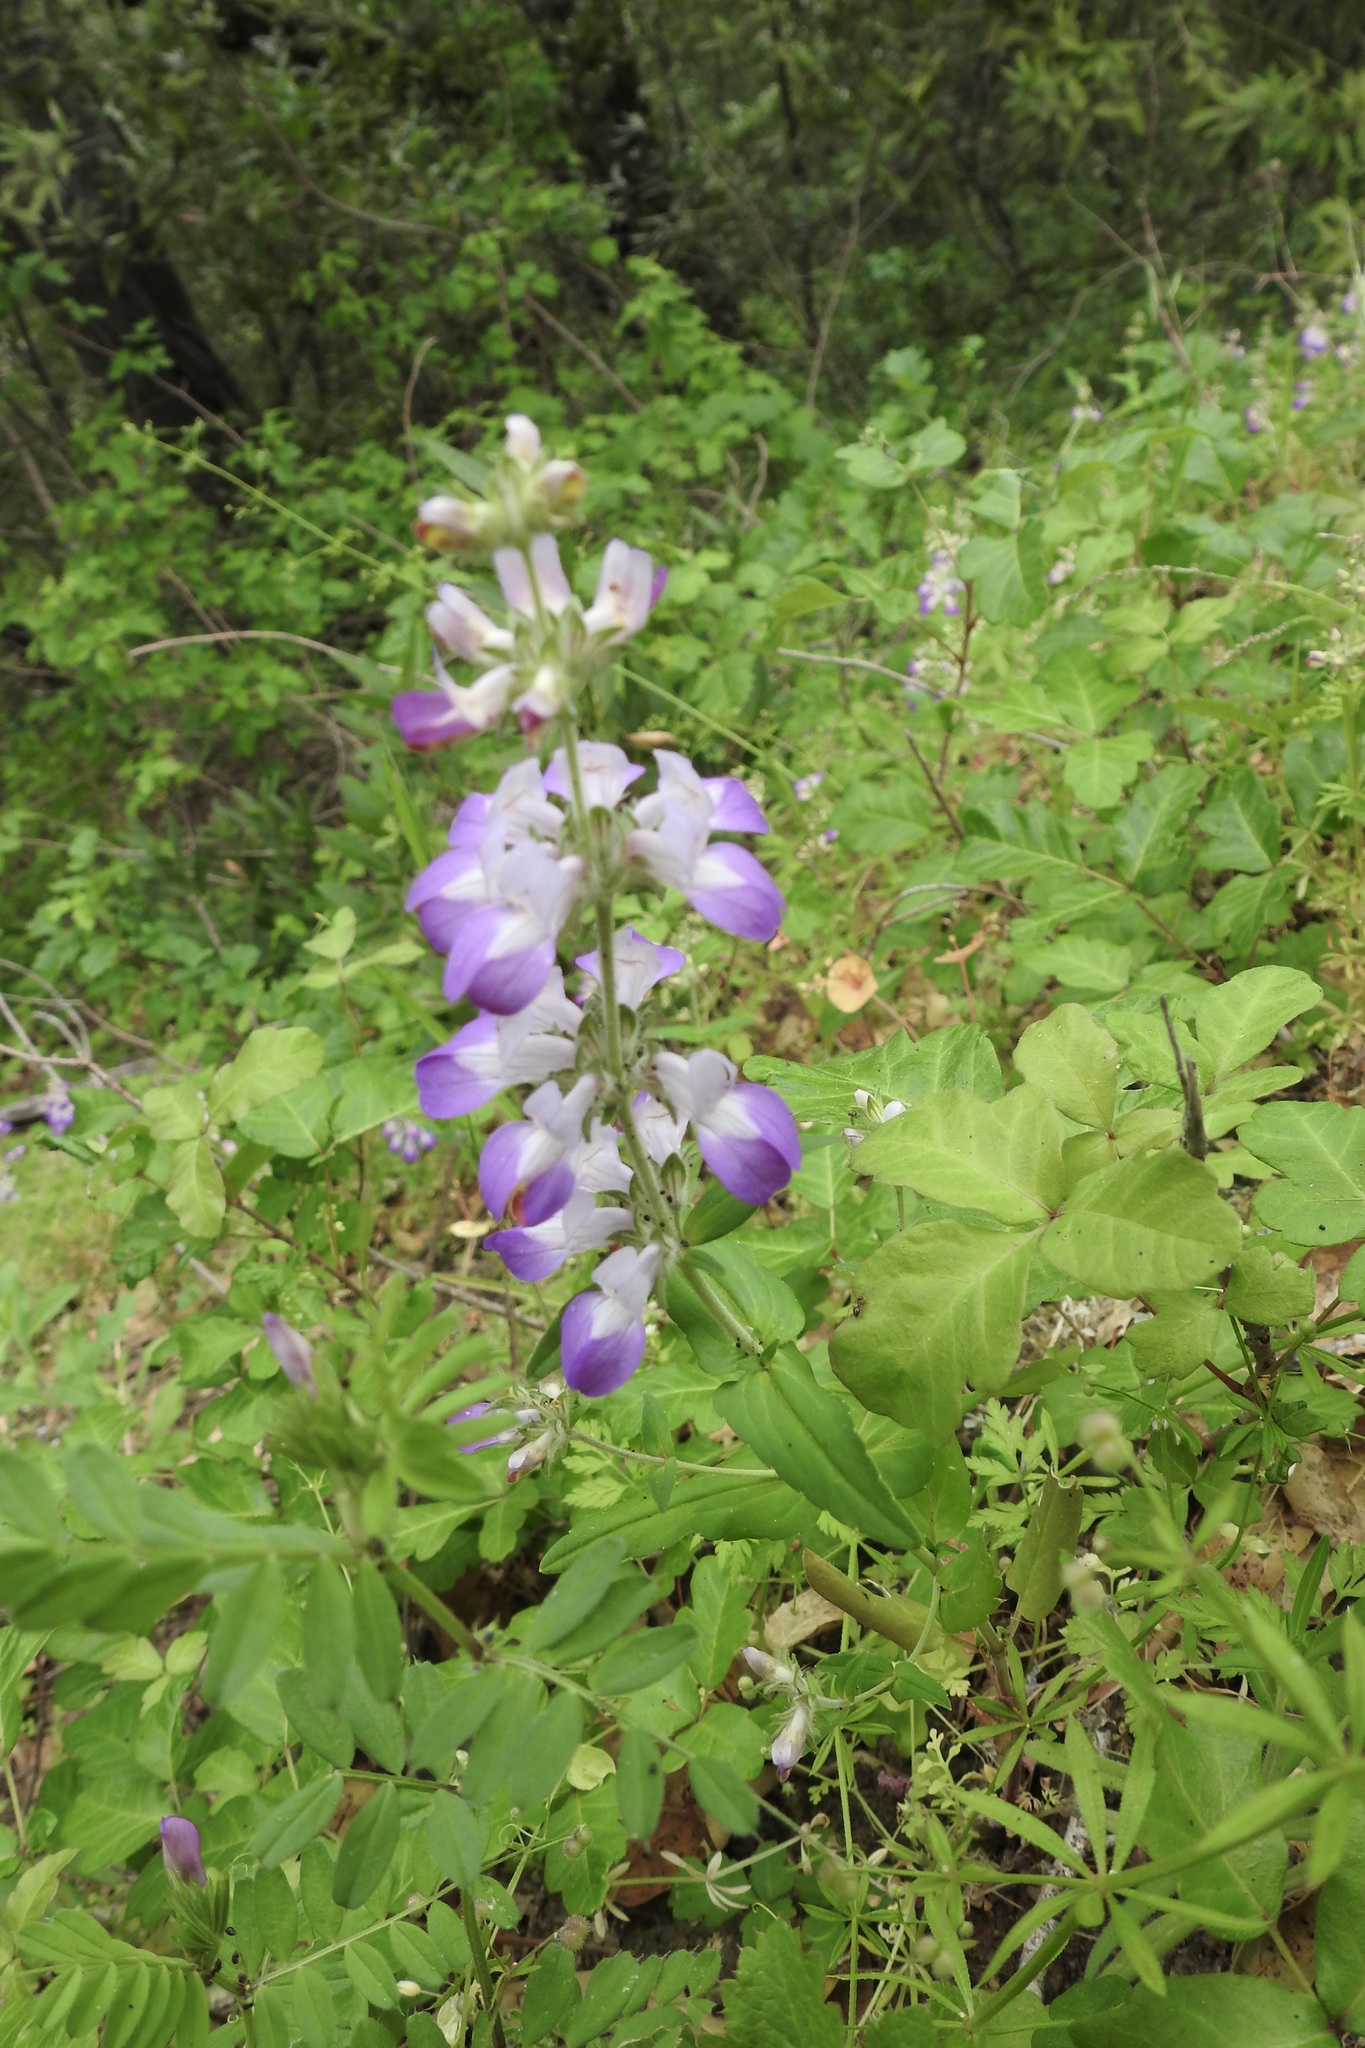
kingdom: Plantae
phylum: Tracheophyta
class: Magnoliopsida
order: Lamiales
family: Plantaginaceae
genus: Collinsia
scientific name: Collinsia heterophylla
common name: Chinese-houses
